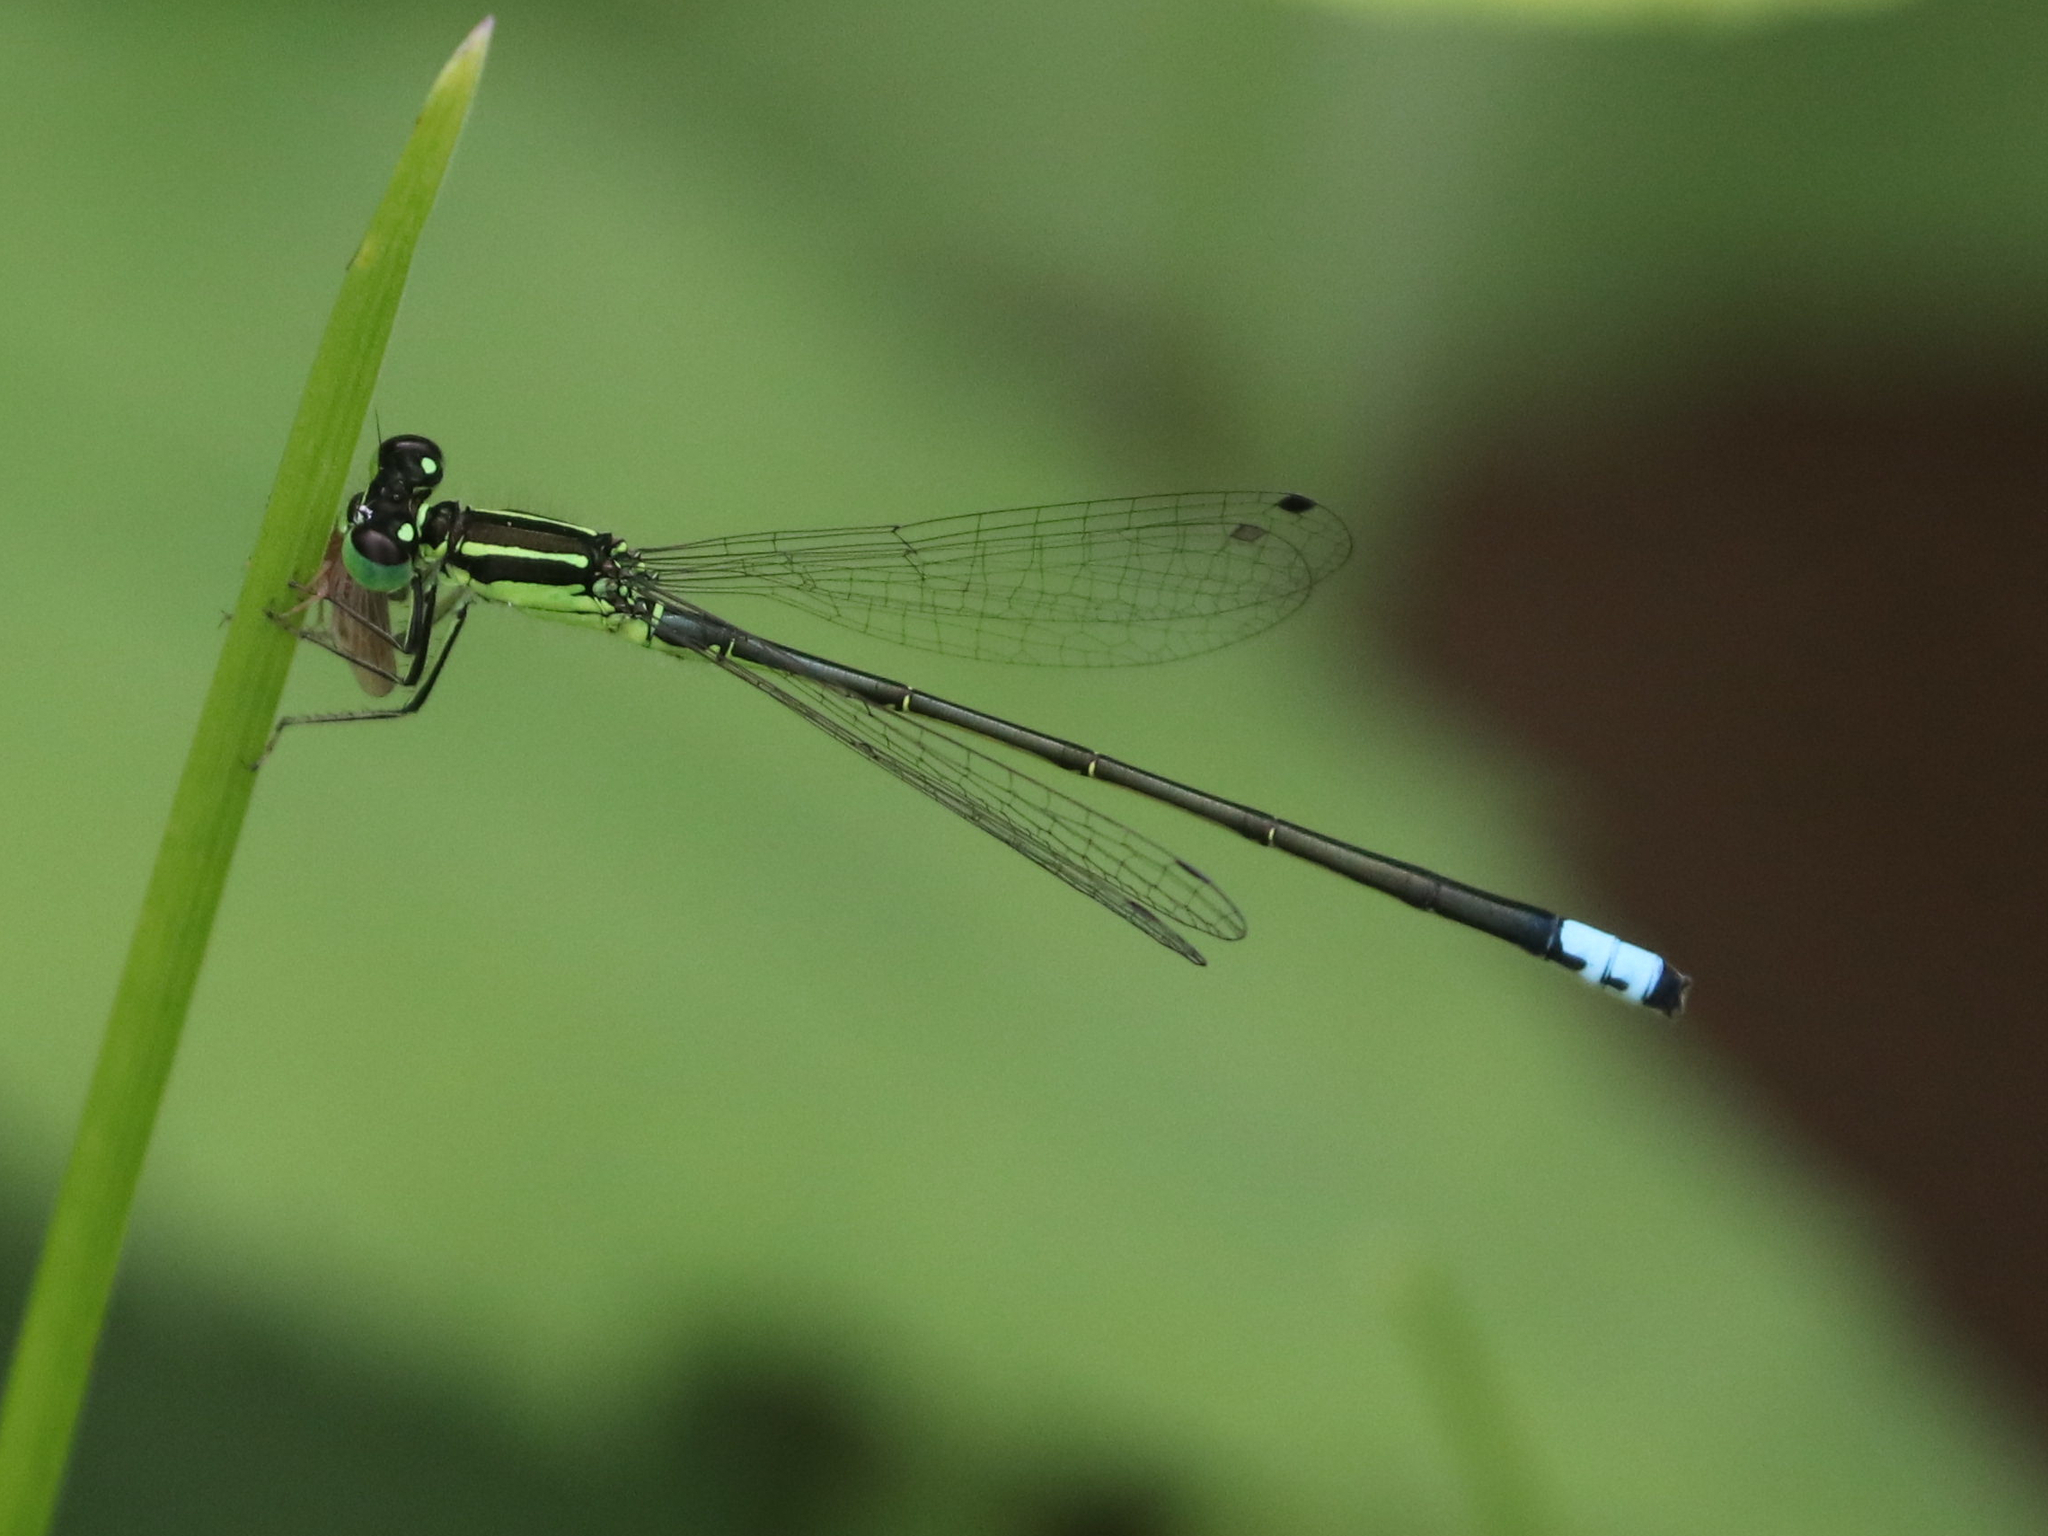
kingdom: Animalia
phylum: Arthropoda
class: Insecta
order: Odonata
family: Coenagrionidae
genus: Ischnura
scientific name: Ischnura verticalis
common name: Eastern forktail
